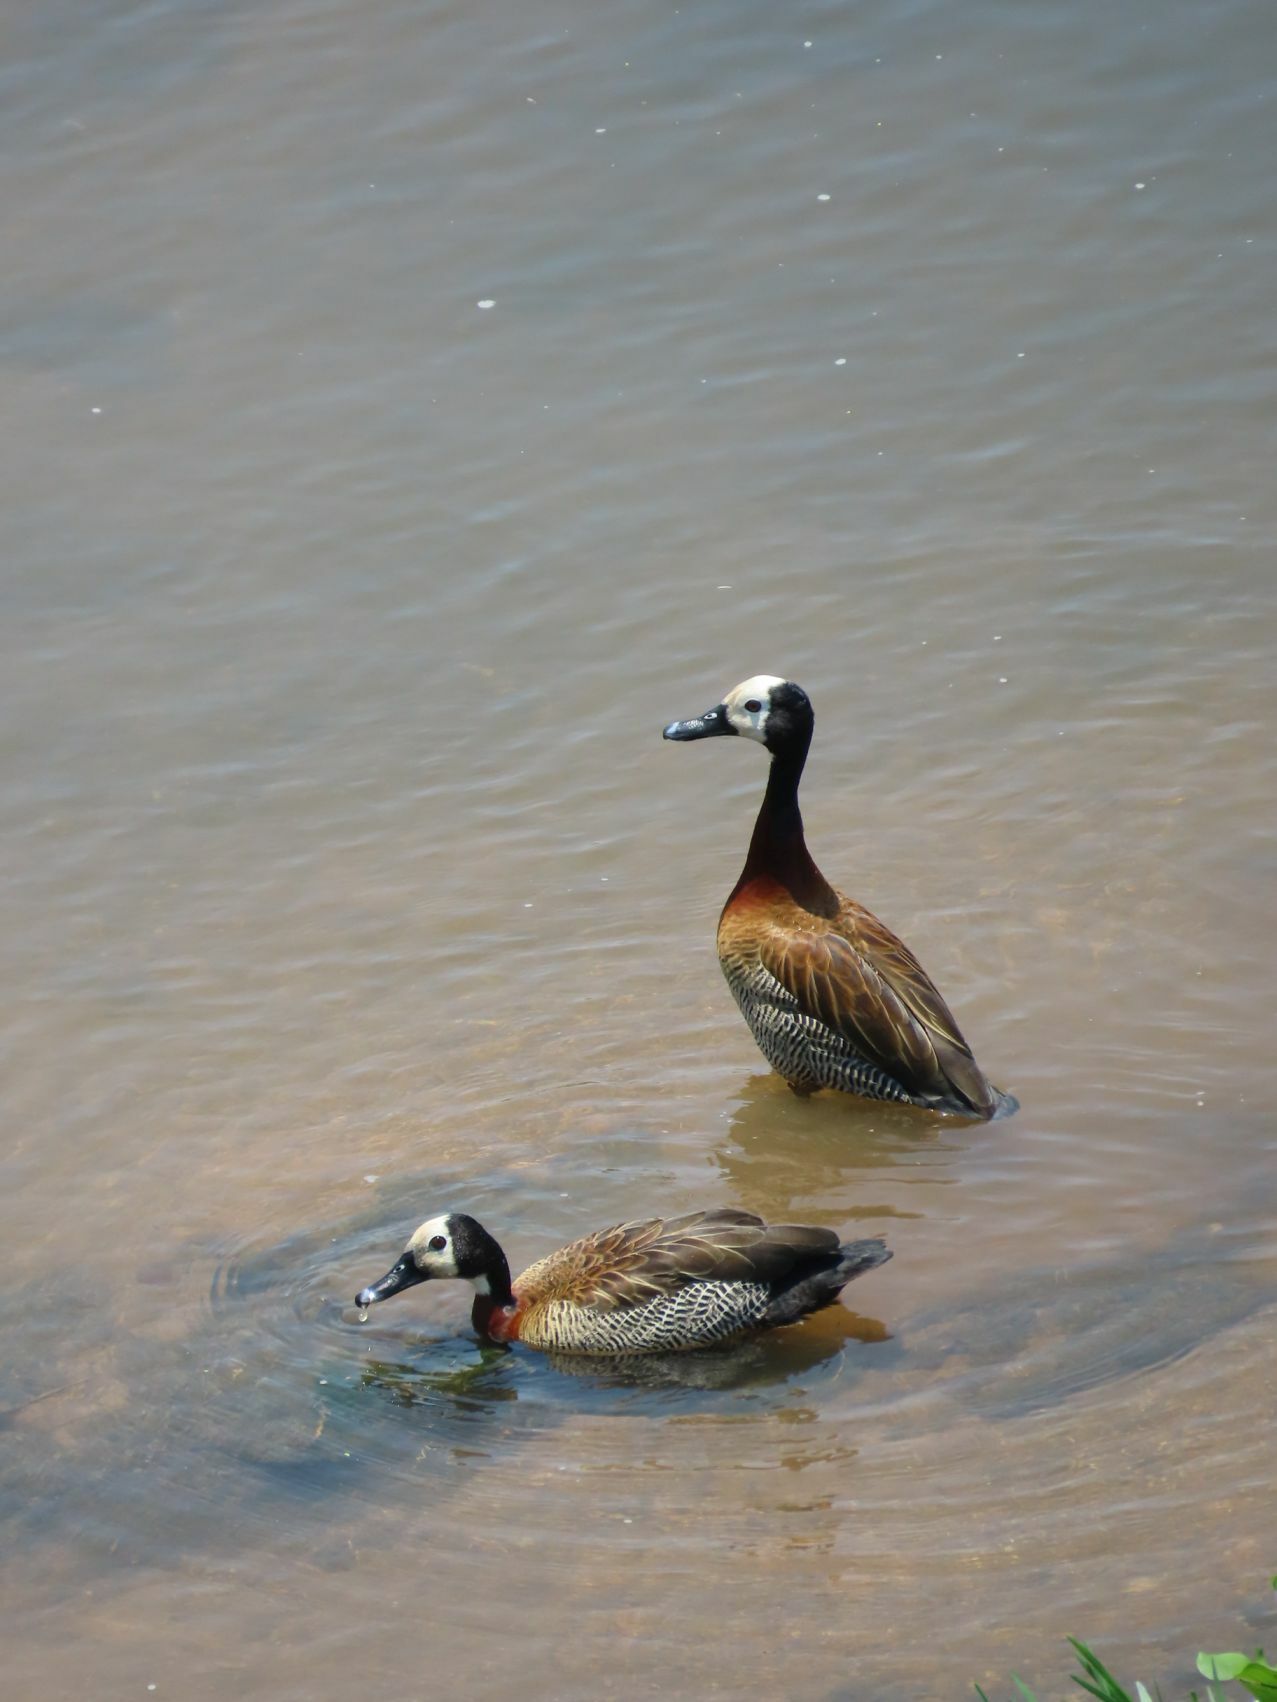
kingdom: Animalia
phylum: Chordata
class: Aves
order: Anseriformes
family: Anatidae
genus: Dendrocygna
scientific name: Dendrocygna viduata
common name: White-faced whistling duck
